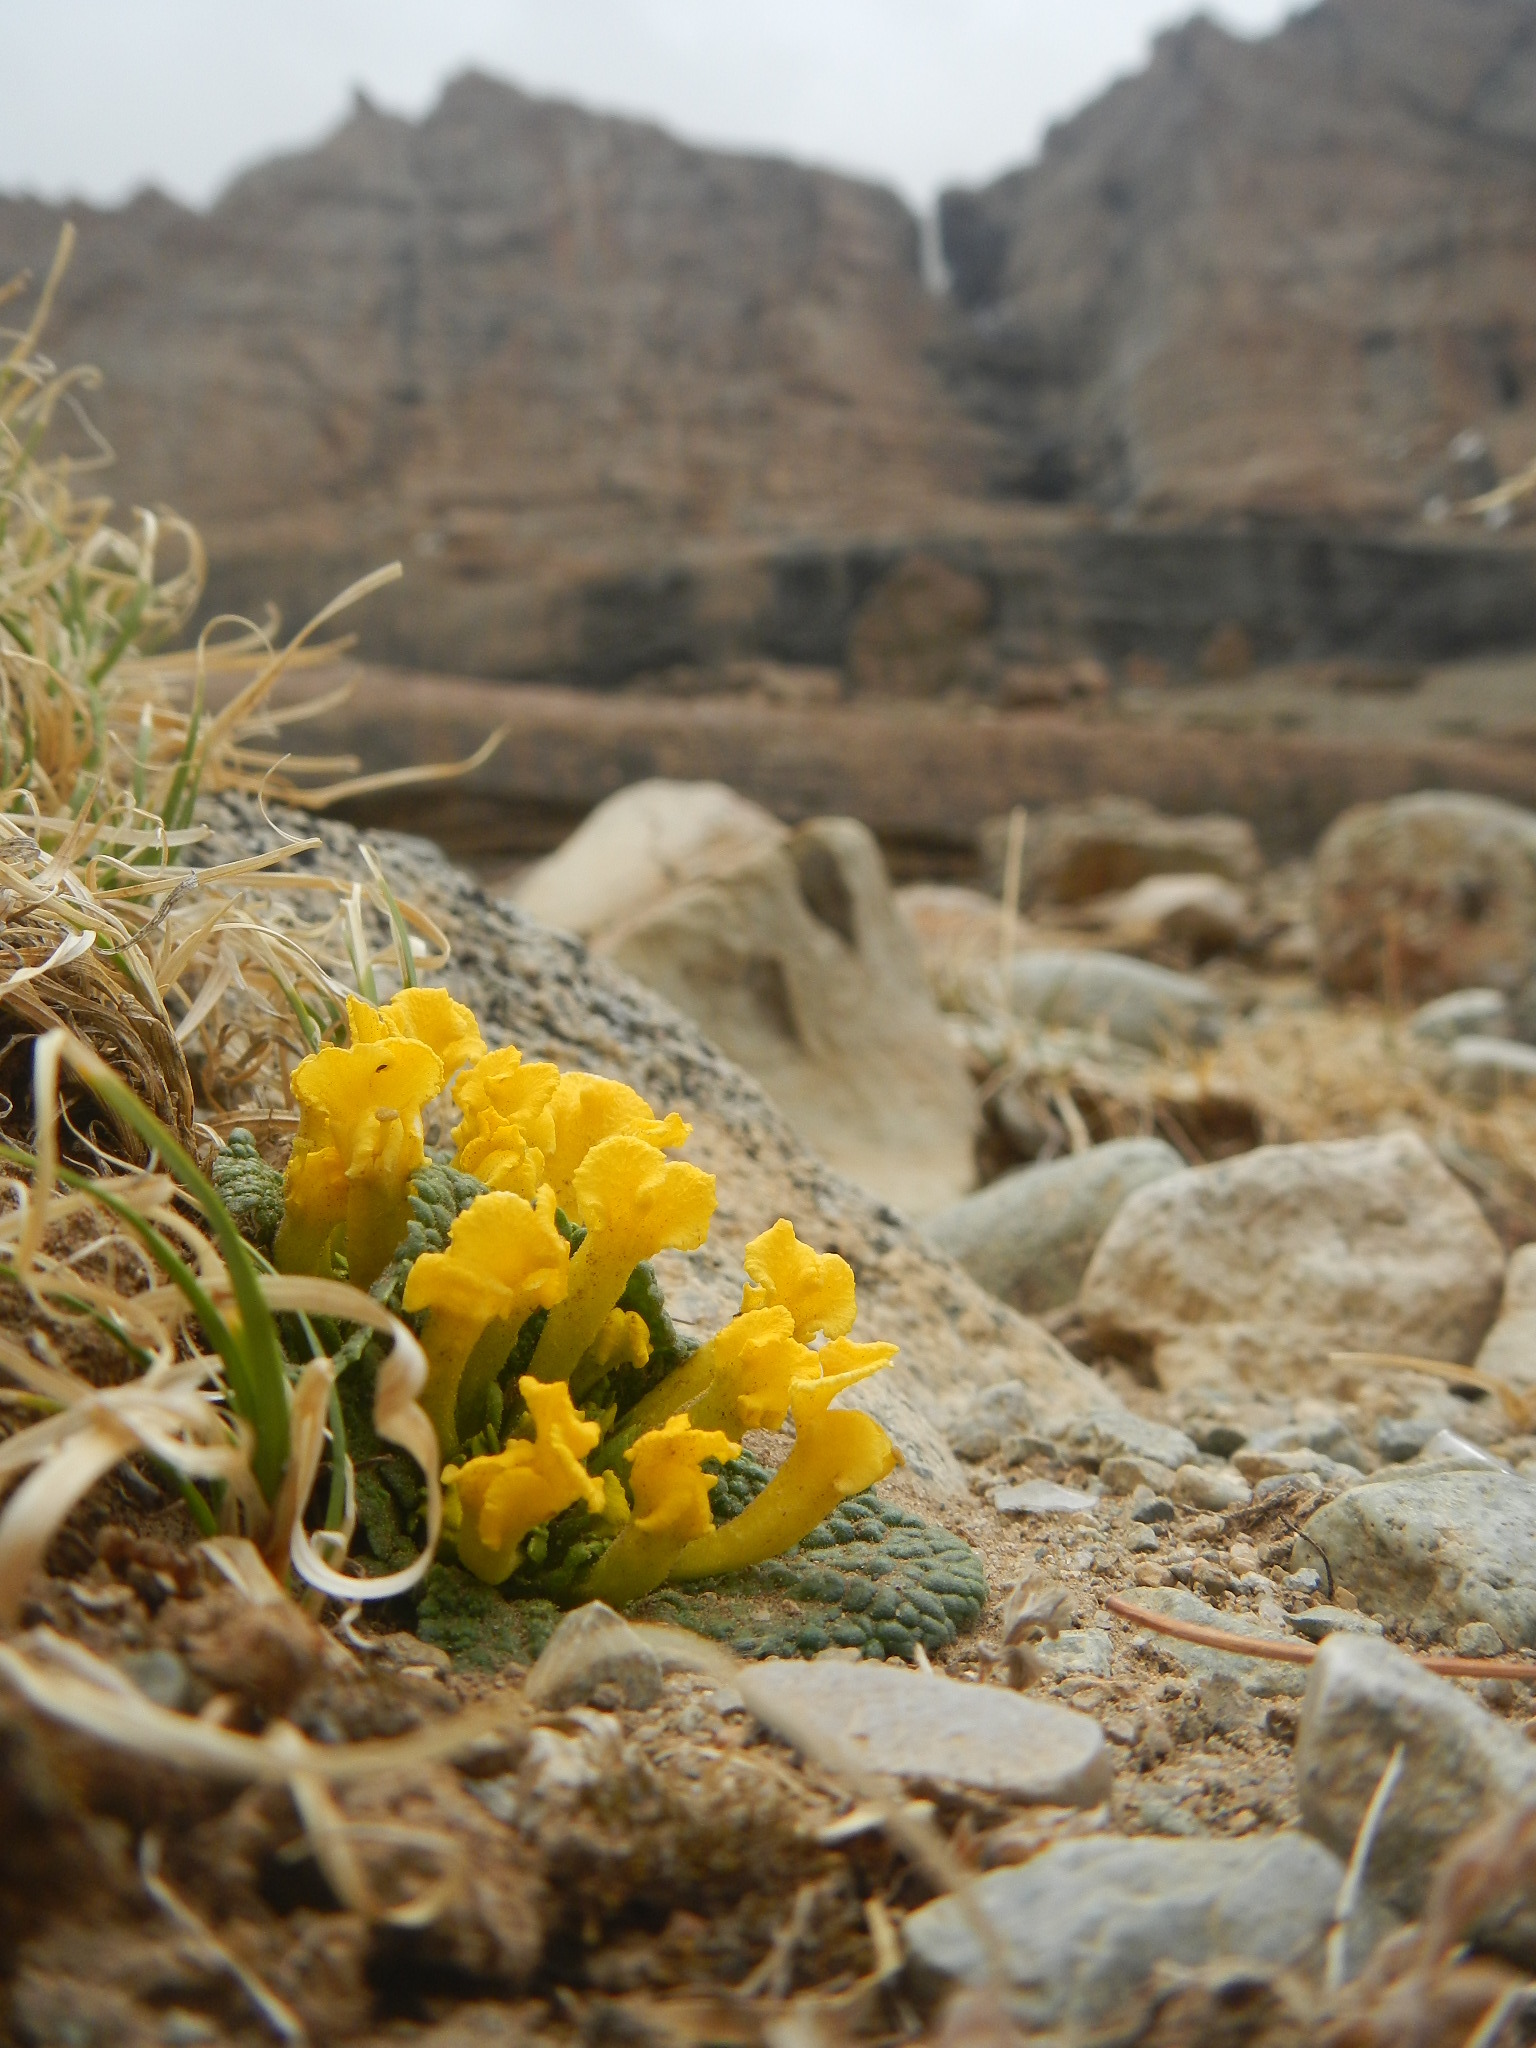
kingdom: Plantae
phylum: Tracheophyta
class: Magnoliopsida
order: Lamiales
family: Scrophulariaceae
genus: Scrophularia
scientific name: Scrophularia wattii
